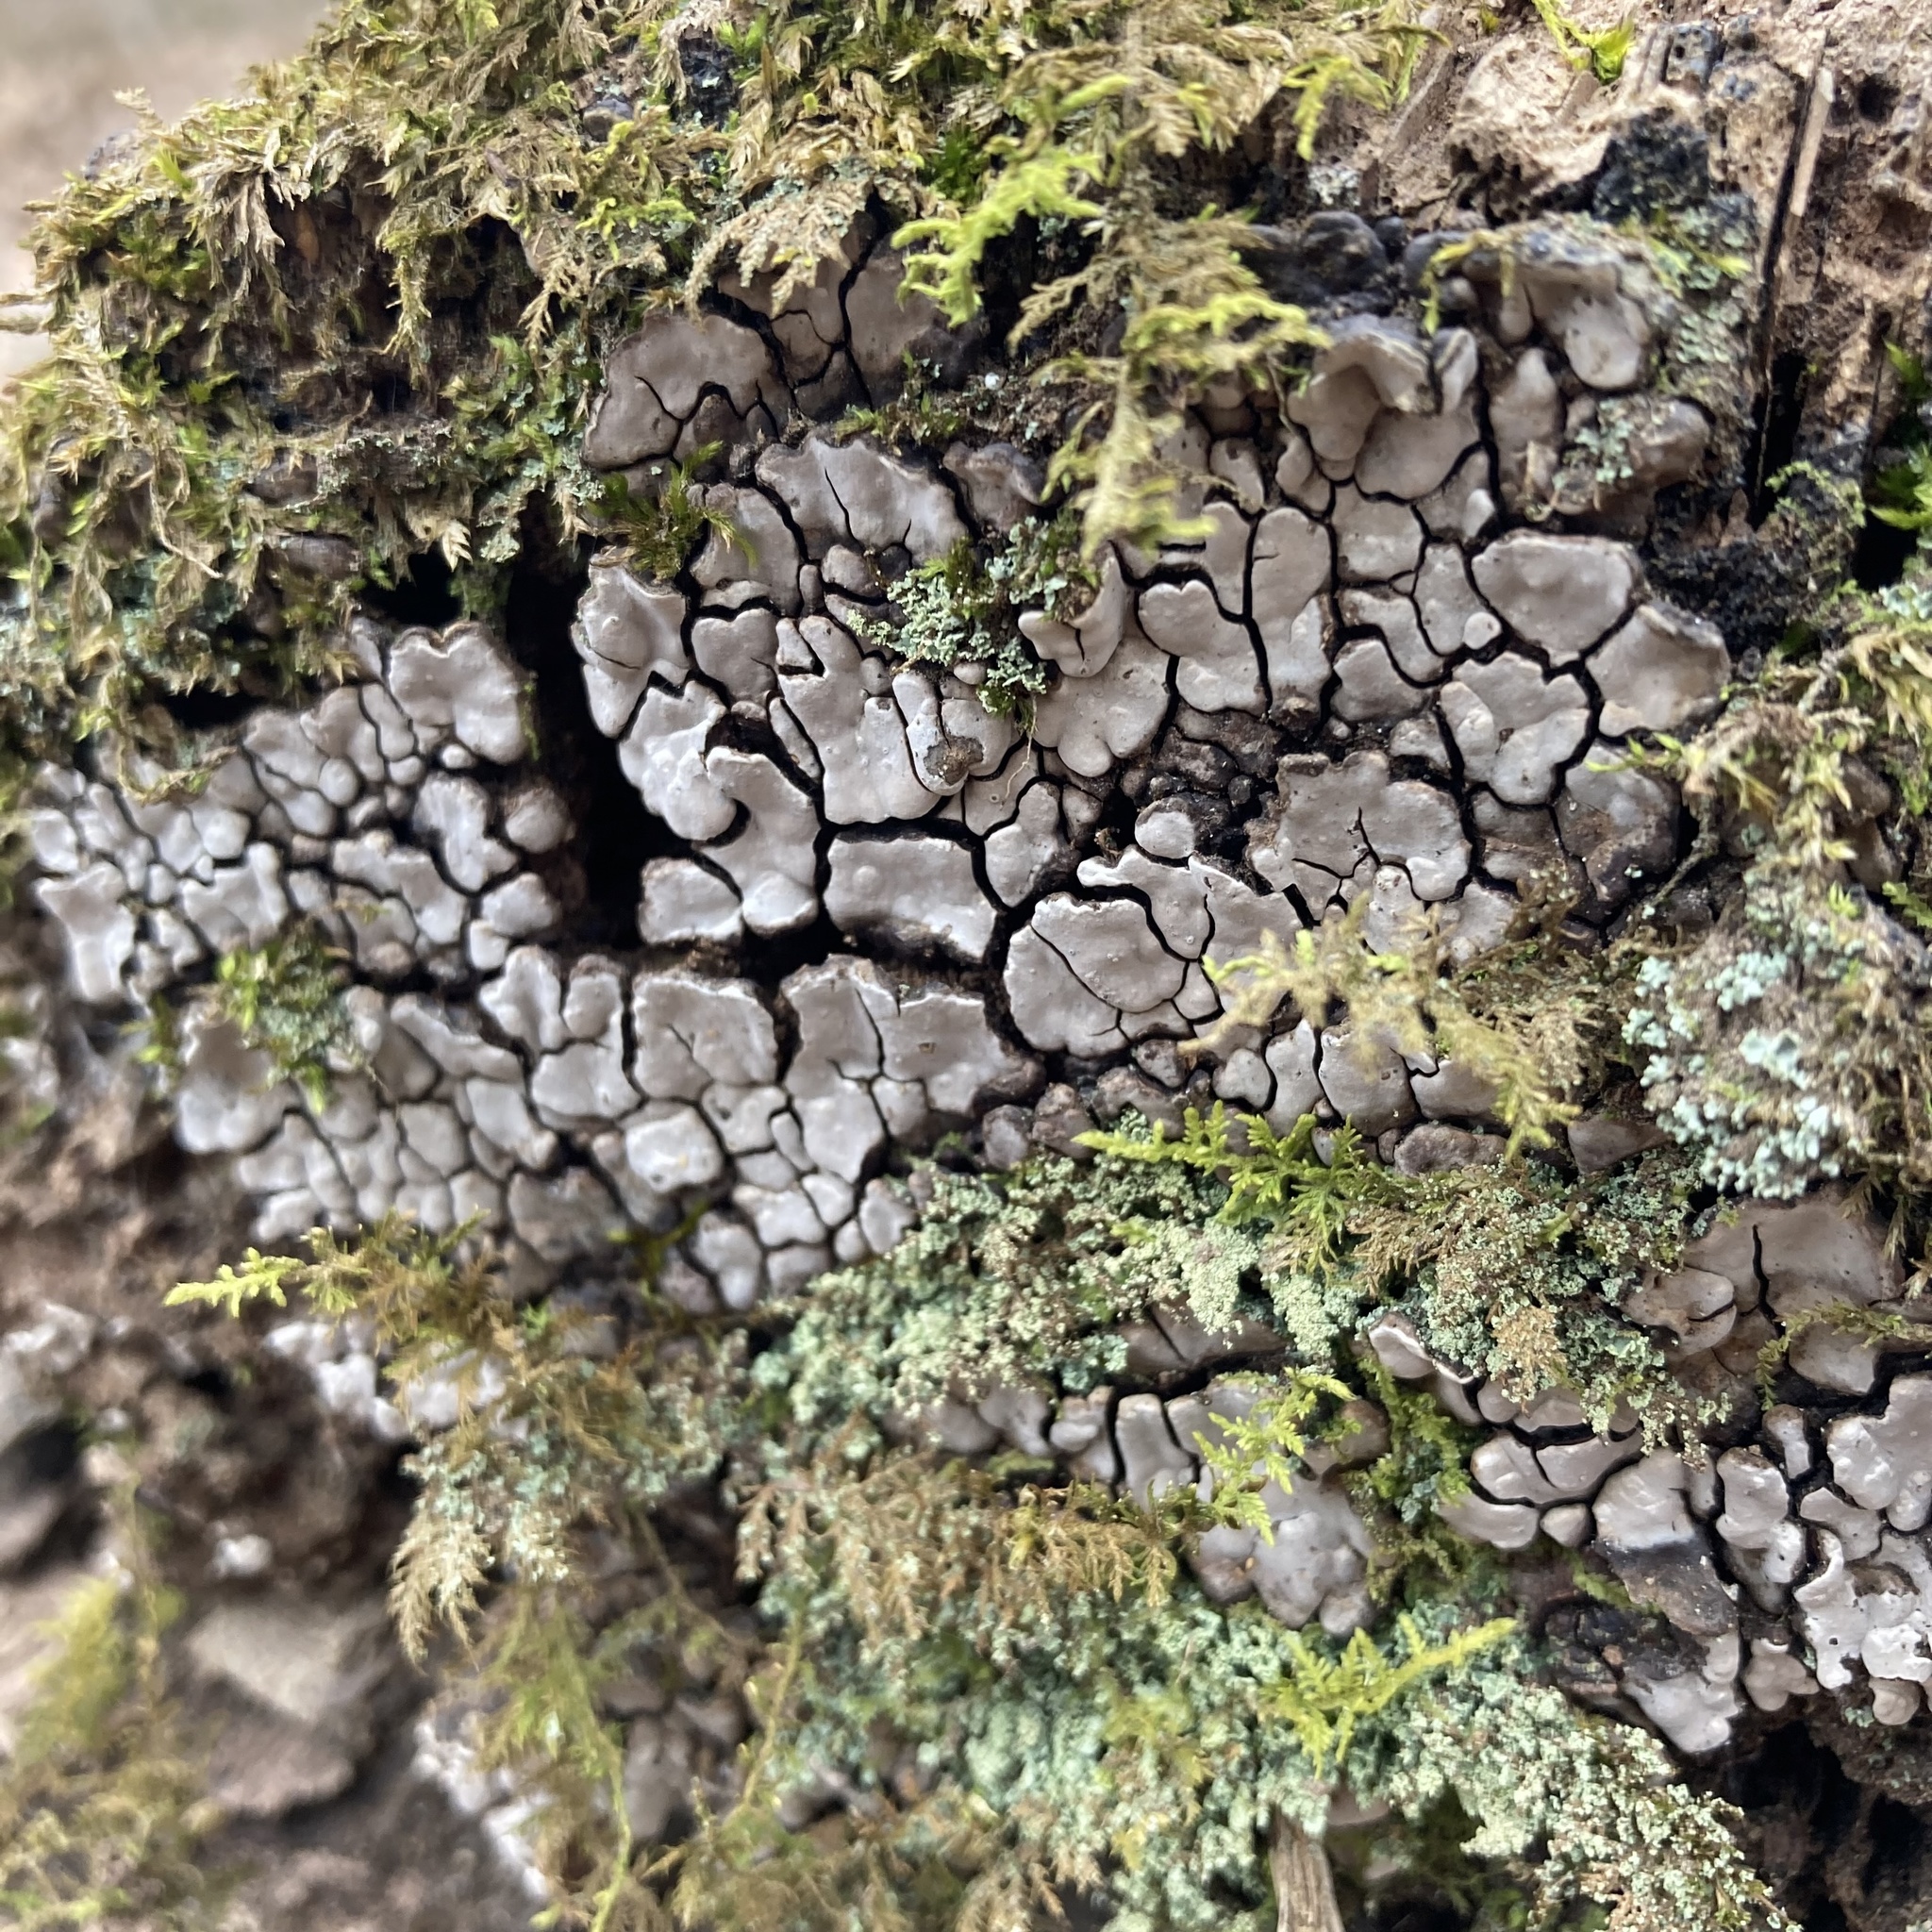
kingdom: Fungi
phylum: Basidiomycota
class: Agaricomycetes
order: Russulales
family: Stereaceae
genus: Xylobolus
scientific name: Xylobolus frustulatus
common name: Ceramic parchment
